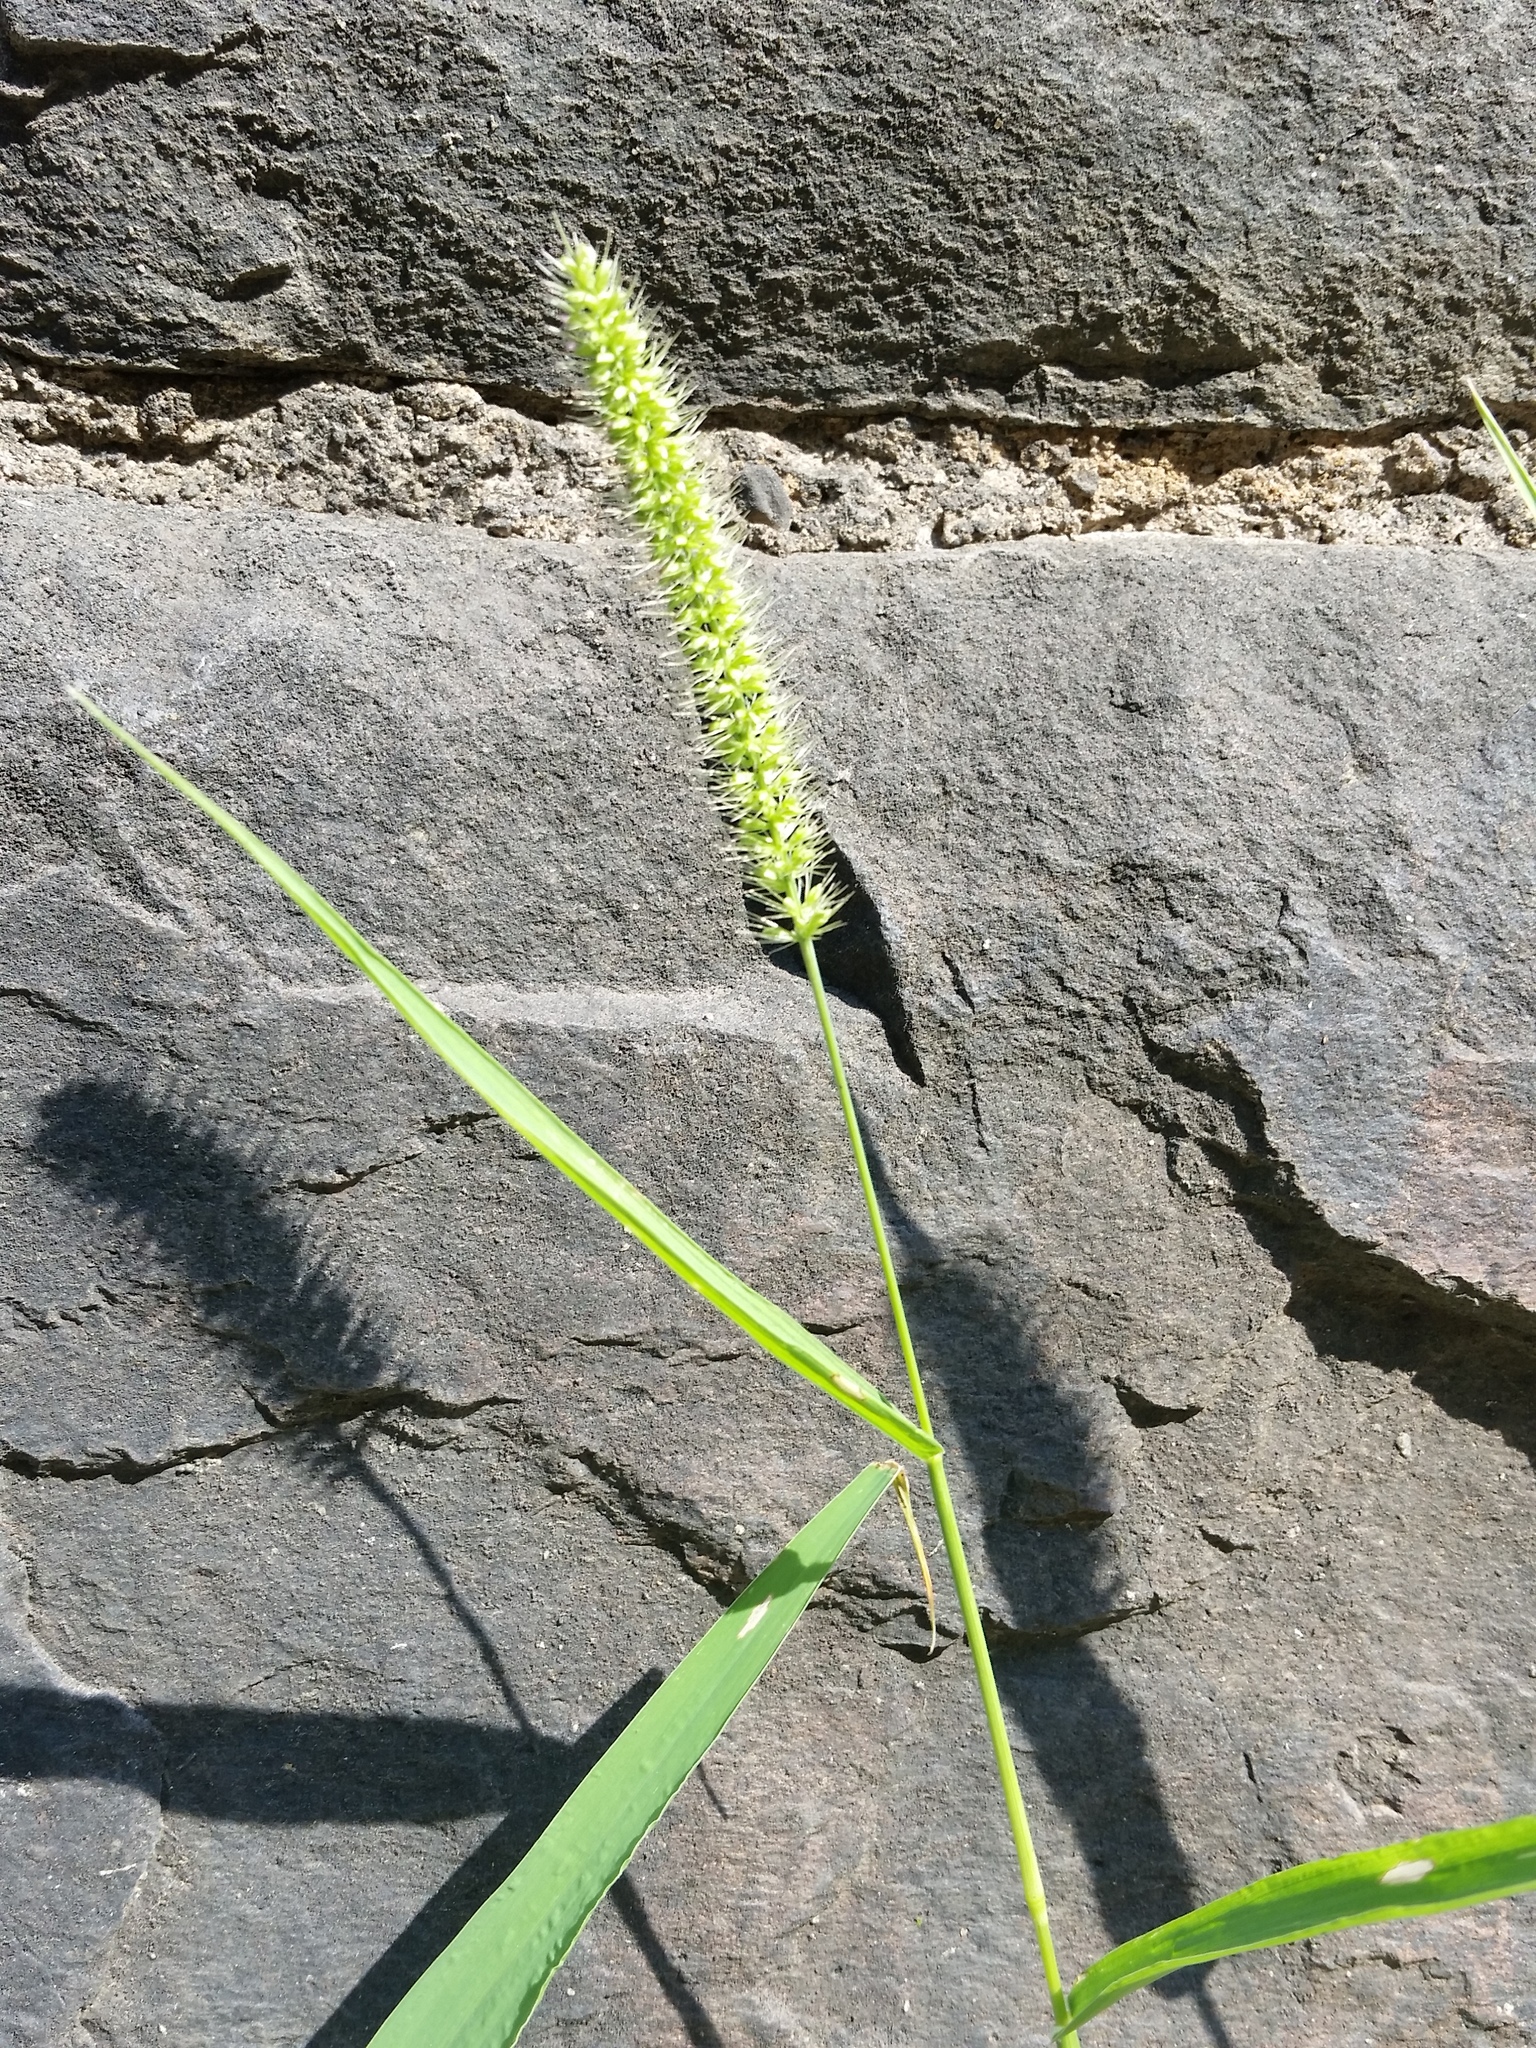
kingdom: Plantae
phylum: Tracheophyta
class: Liliopsida
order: Poales
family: Poaceae
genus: Setaria
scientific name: Setaria verticillata
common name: Hooked bristlegrass
